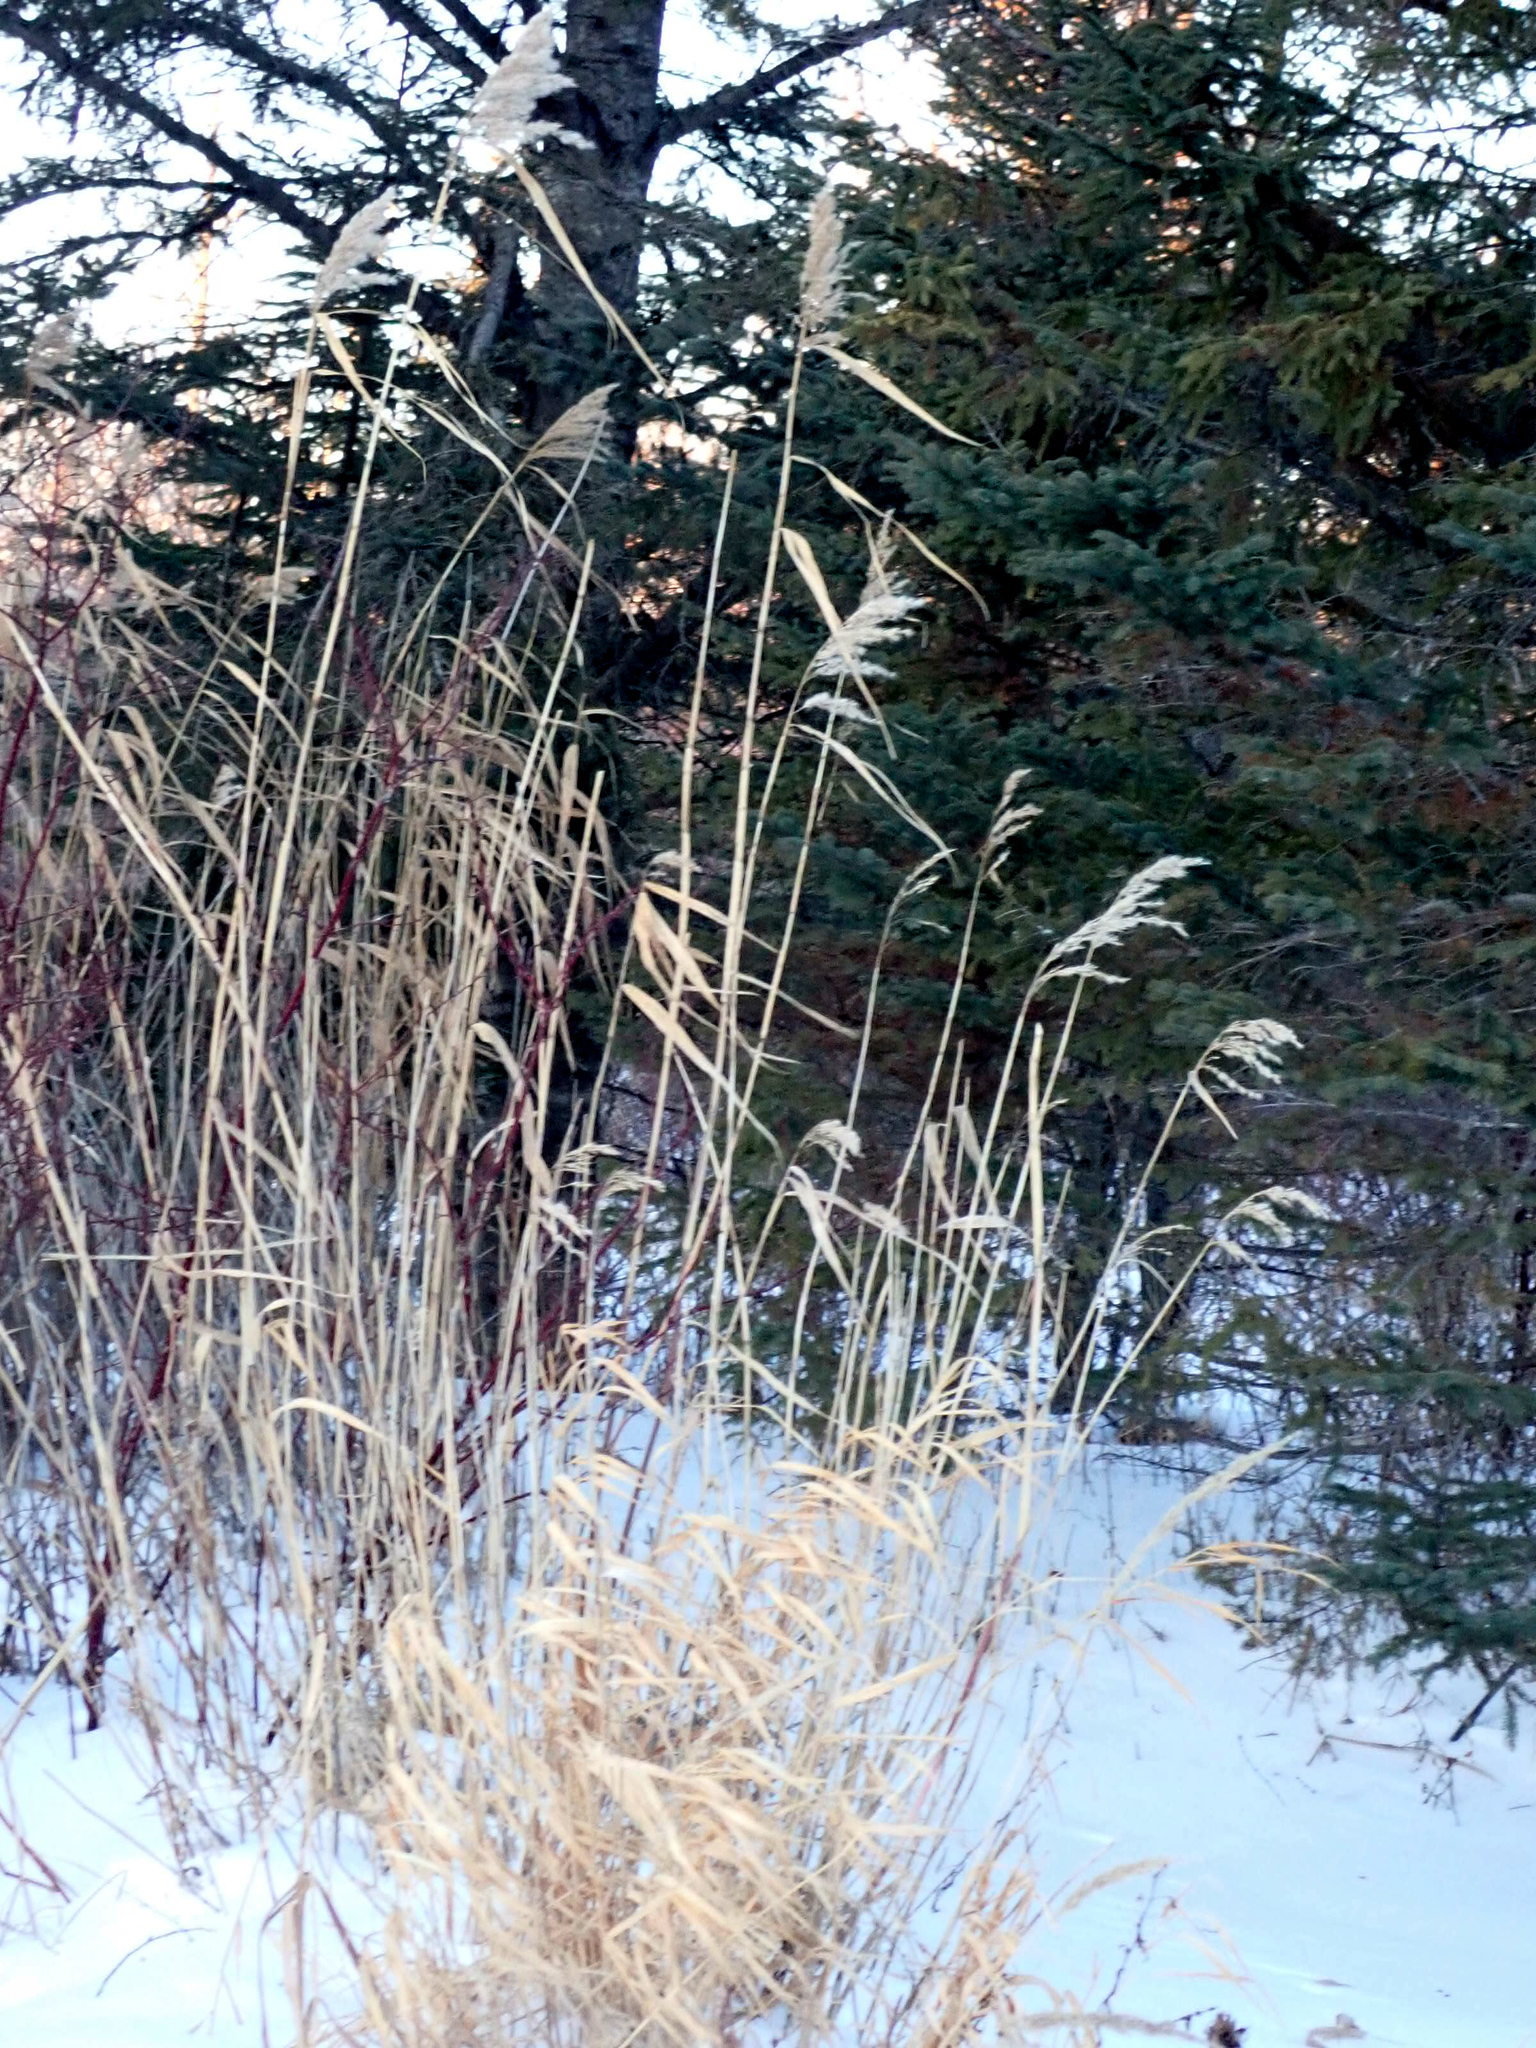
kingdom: Plantae
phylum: Tracheophyta
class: Liliopsida
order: Poales
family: Poaceae
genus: Phragmites
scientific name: Phragmites australis
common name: Common reed
